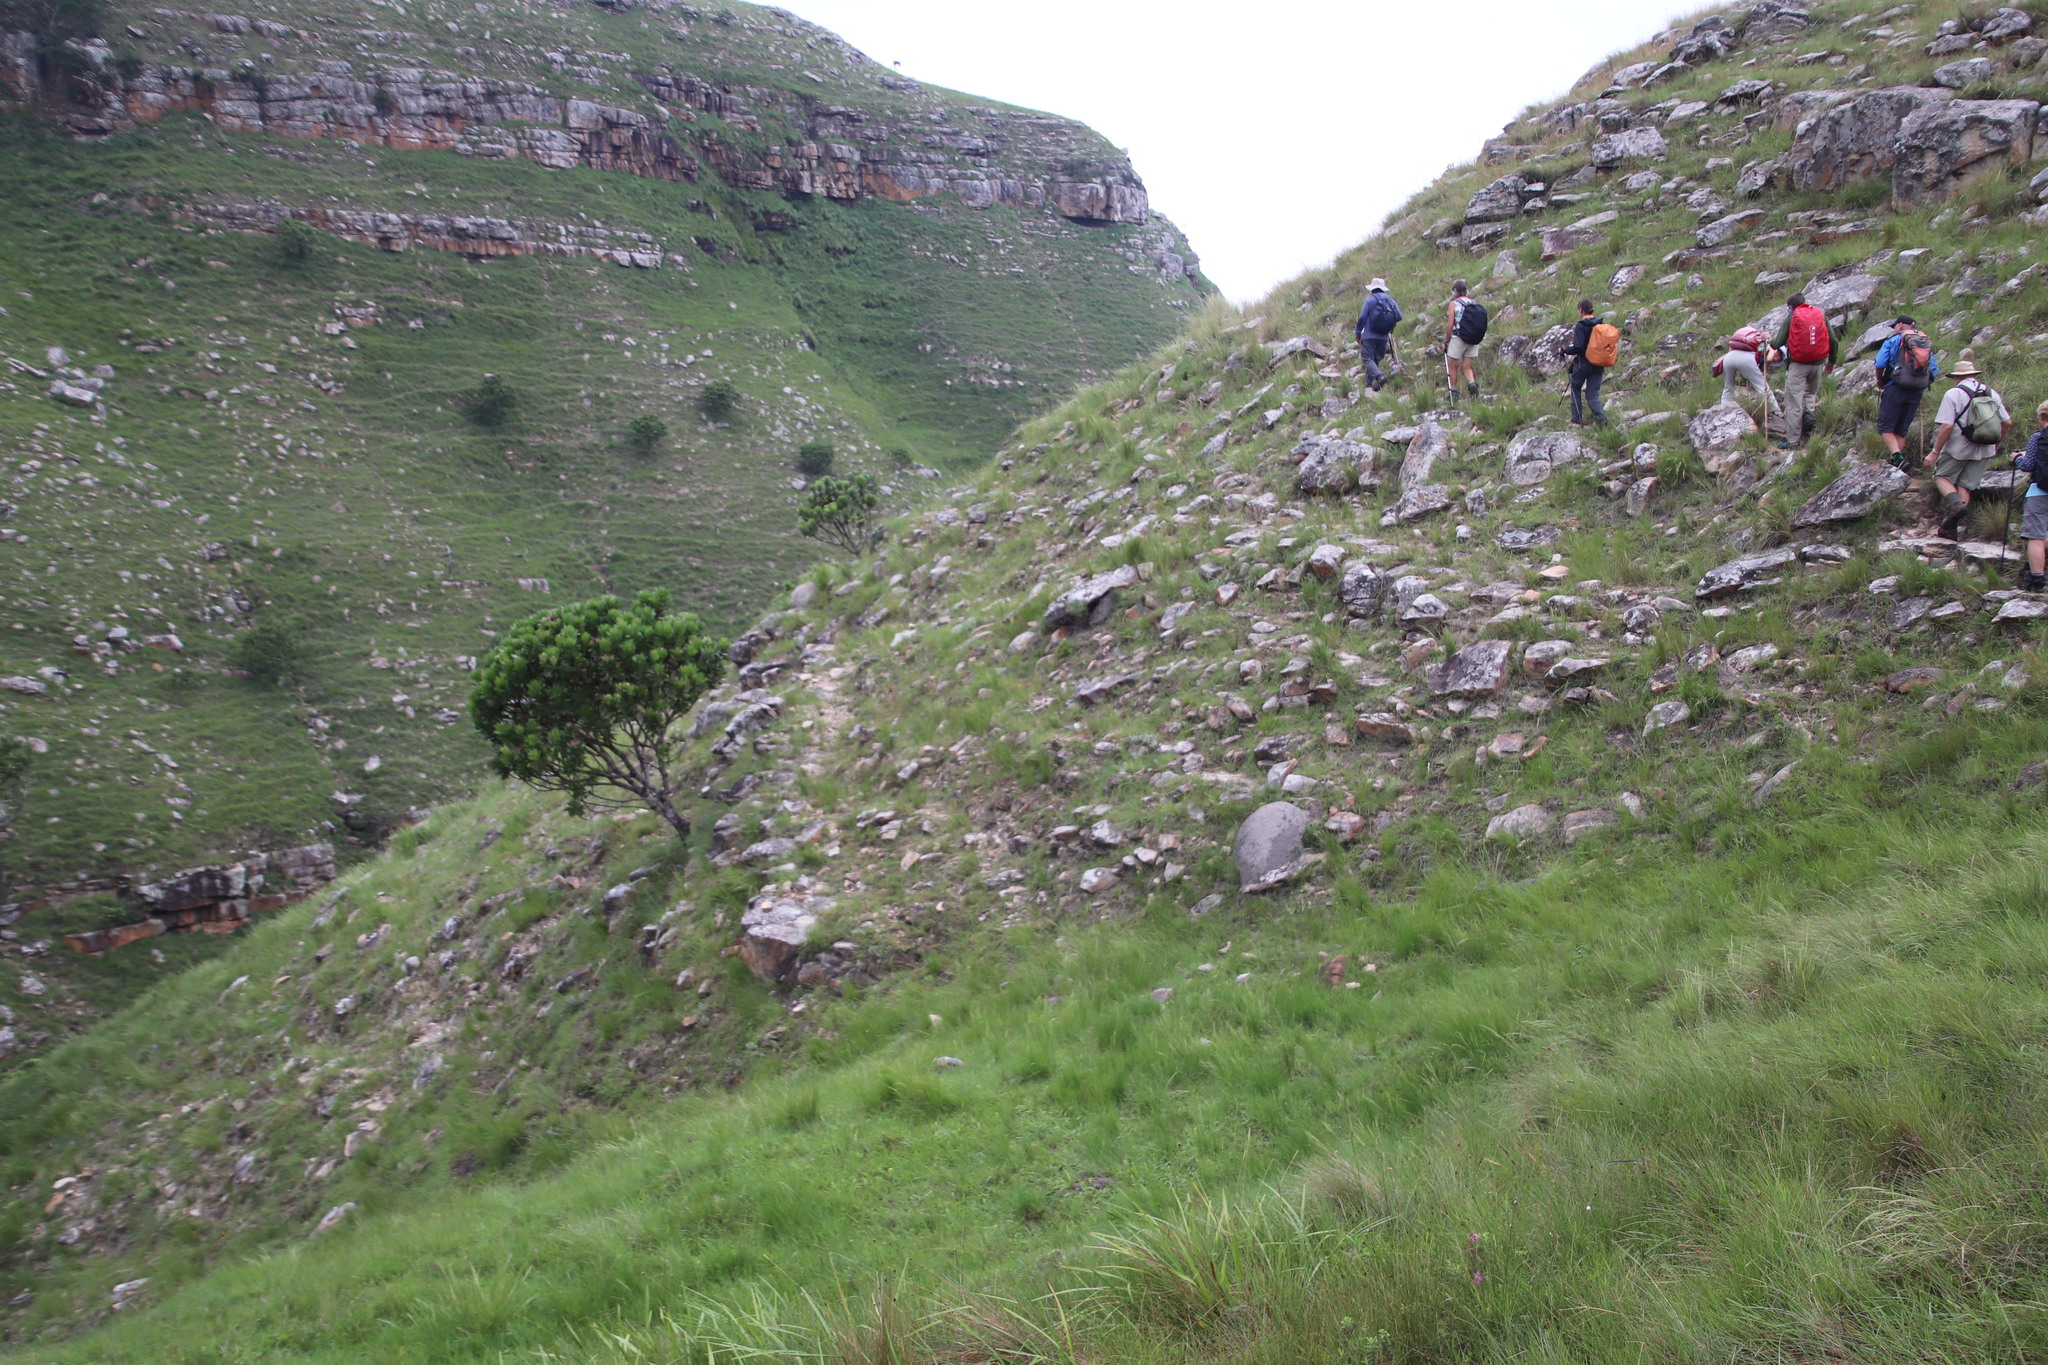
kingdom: Plantae
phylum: Tracheophyta
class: Magnoliopsida
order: Proteales
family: Proteaceae
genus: Protea
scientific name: Protea roupelliae
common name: Silver sugarbush
